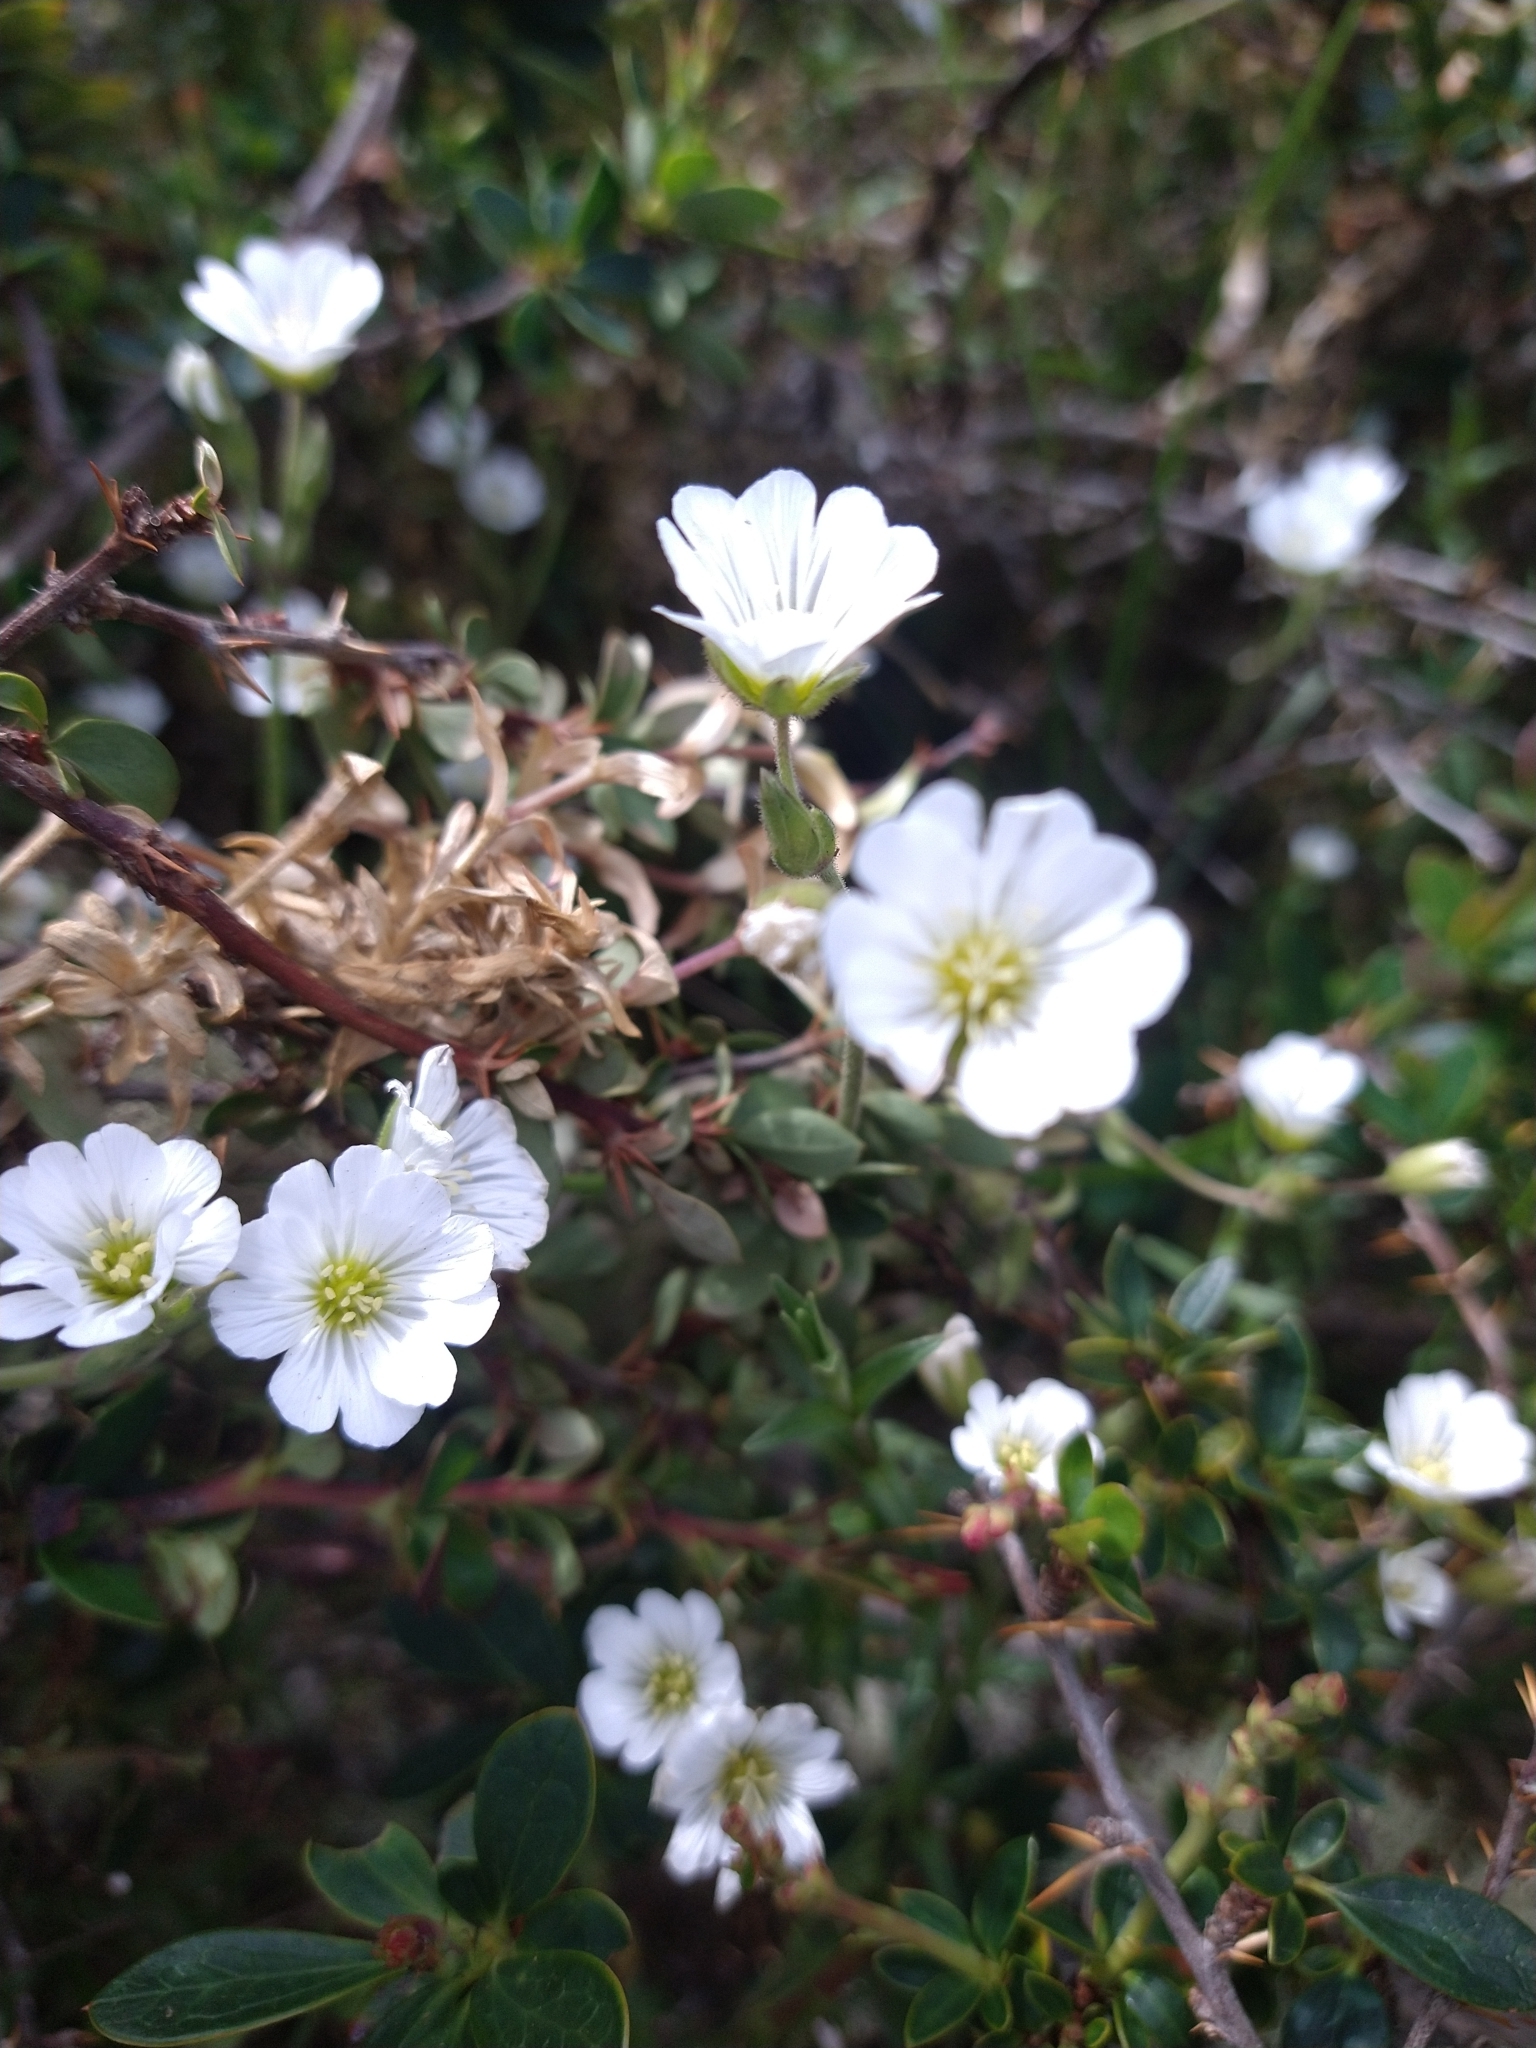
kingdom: Plantae
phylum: Tracheophyta
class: Magnoliopsida
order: Caryophyllales
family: Caryophyllaceae
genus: Cerastium
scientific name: Cerastium arvense
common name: Field mouse-ear
